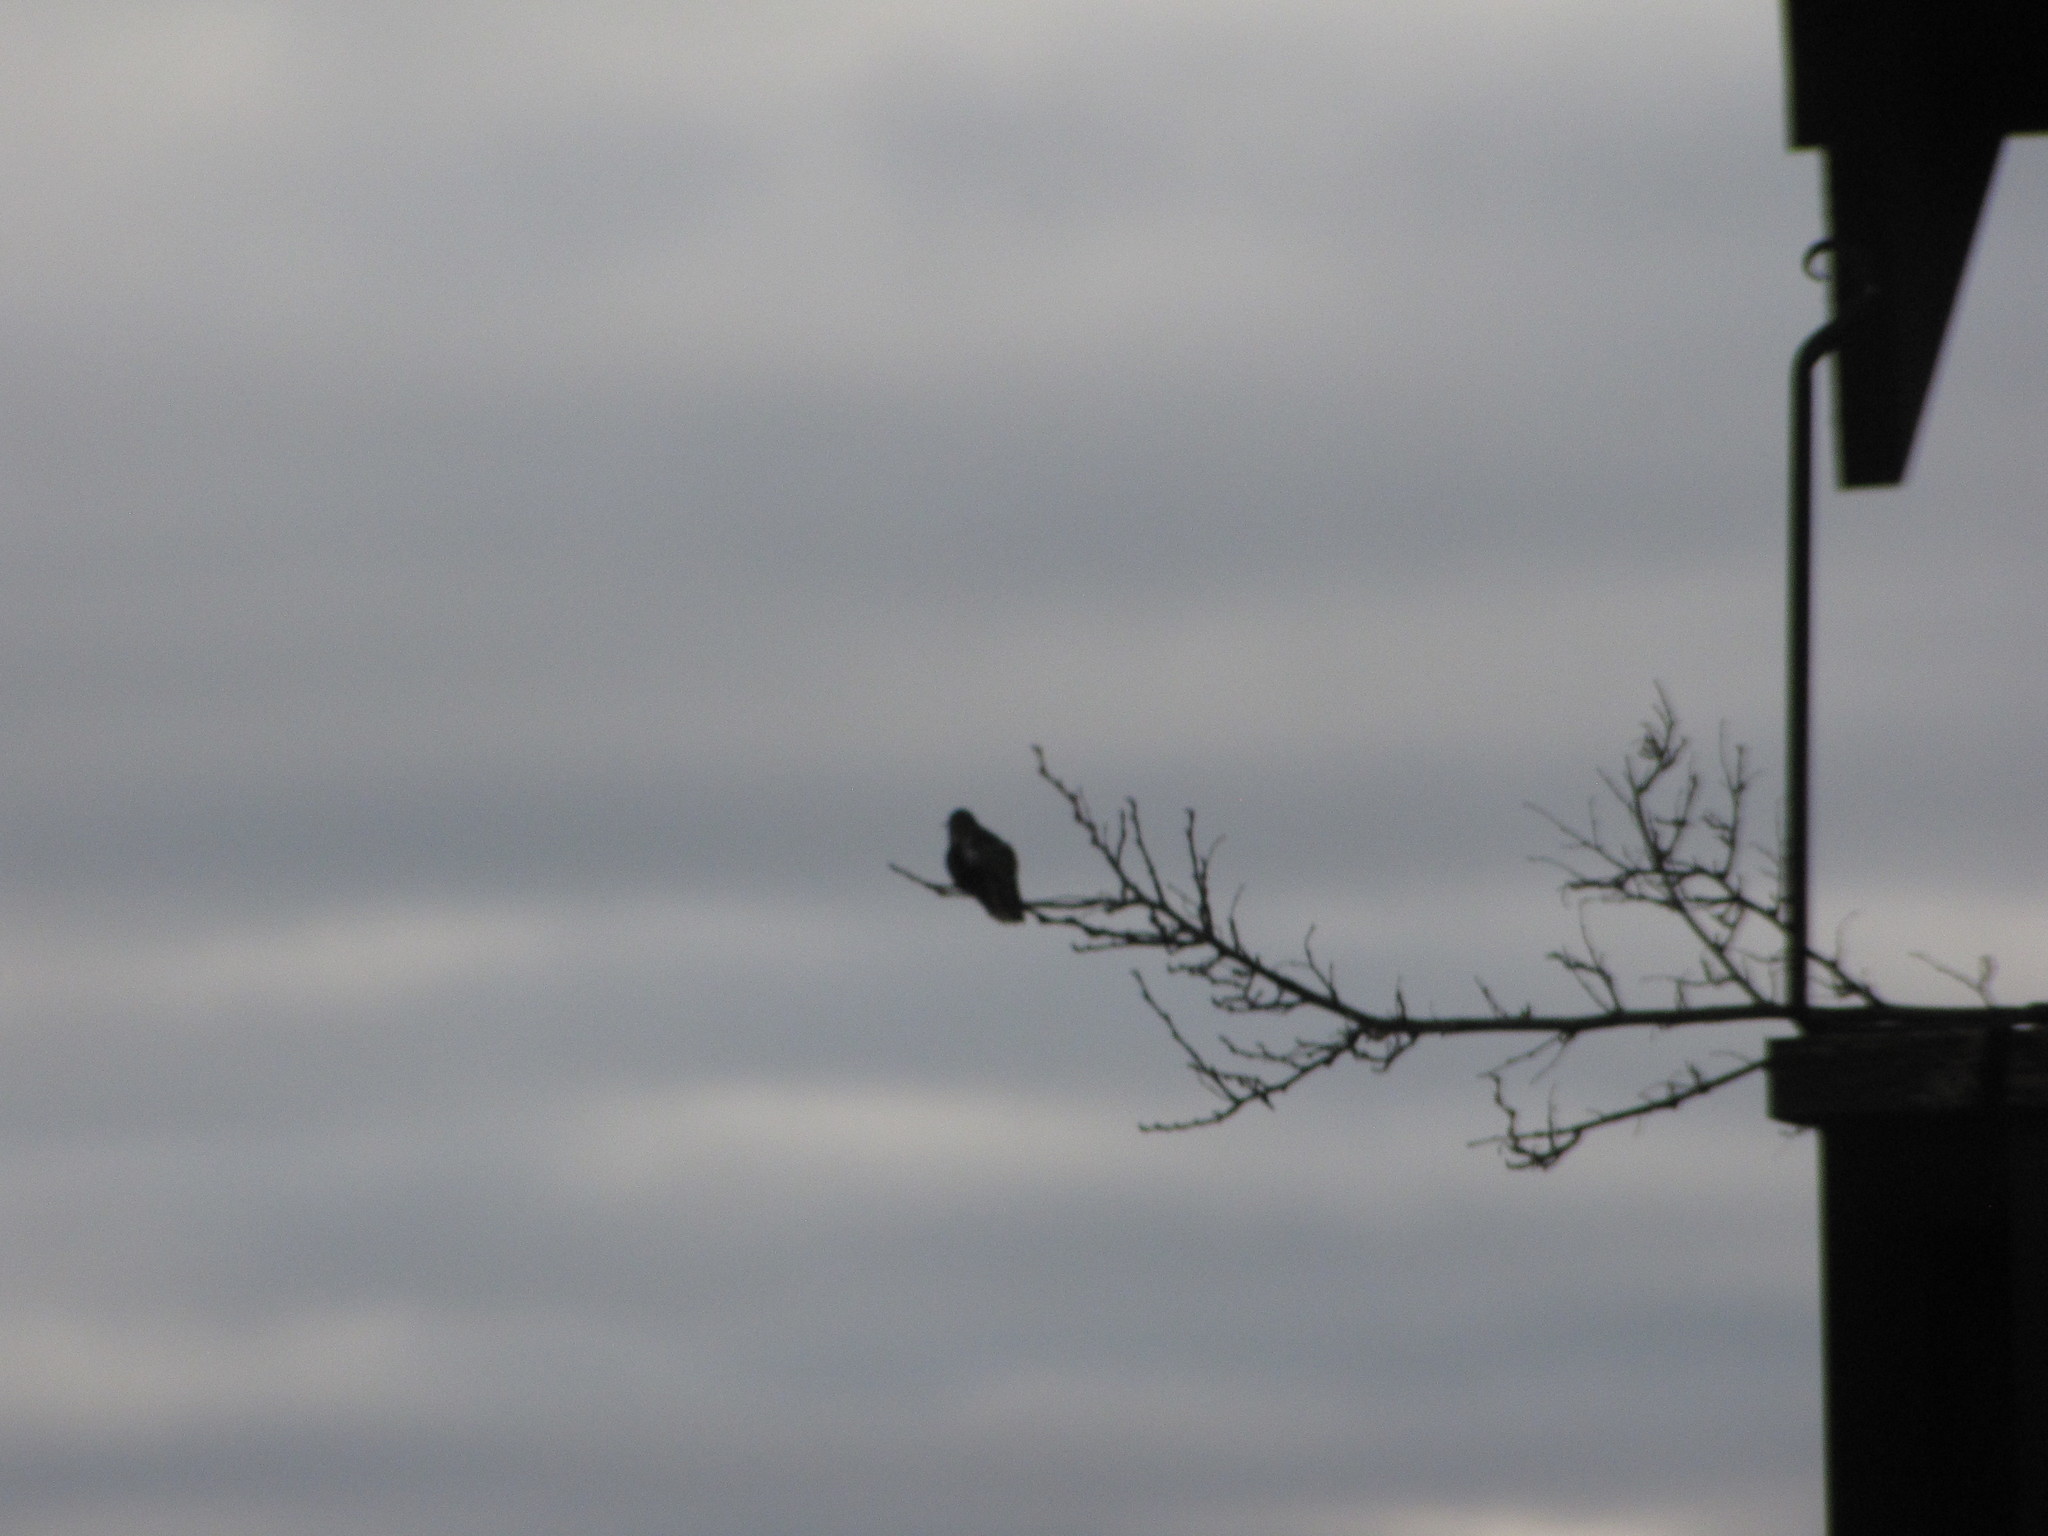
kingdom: Animalia
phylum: Chordata
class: Aves
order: Apodiformes
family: Trochilidae
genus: Calypte
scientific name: Calypte anna
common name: Anna's hummingbird
